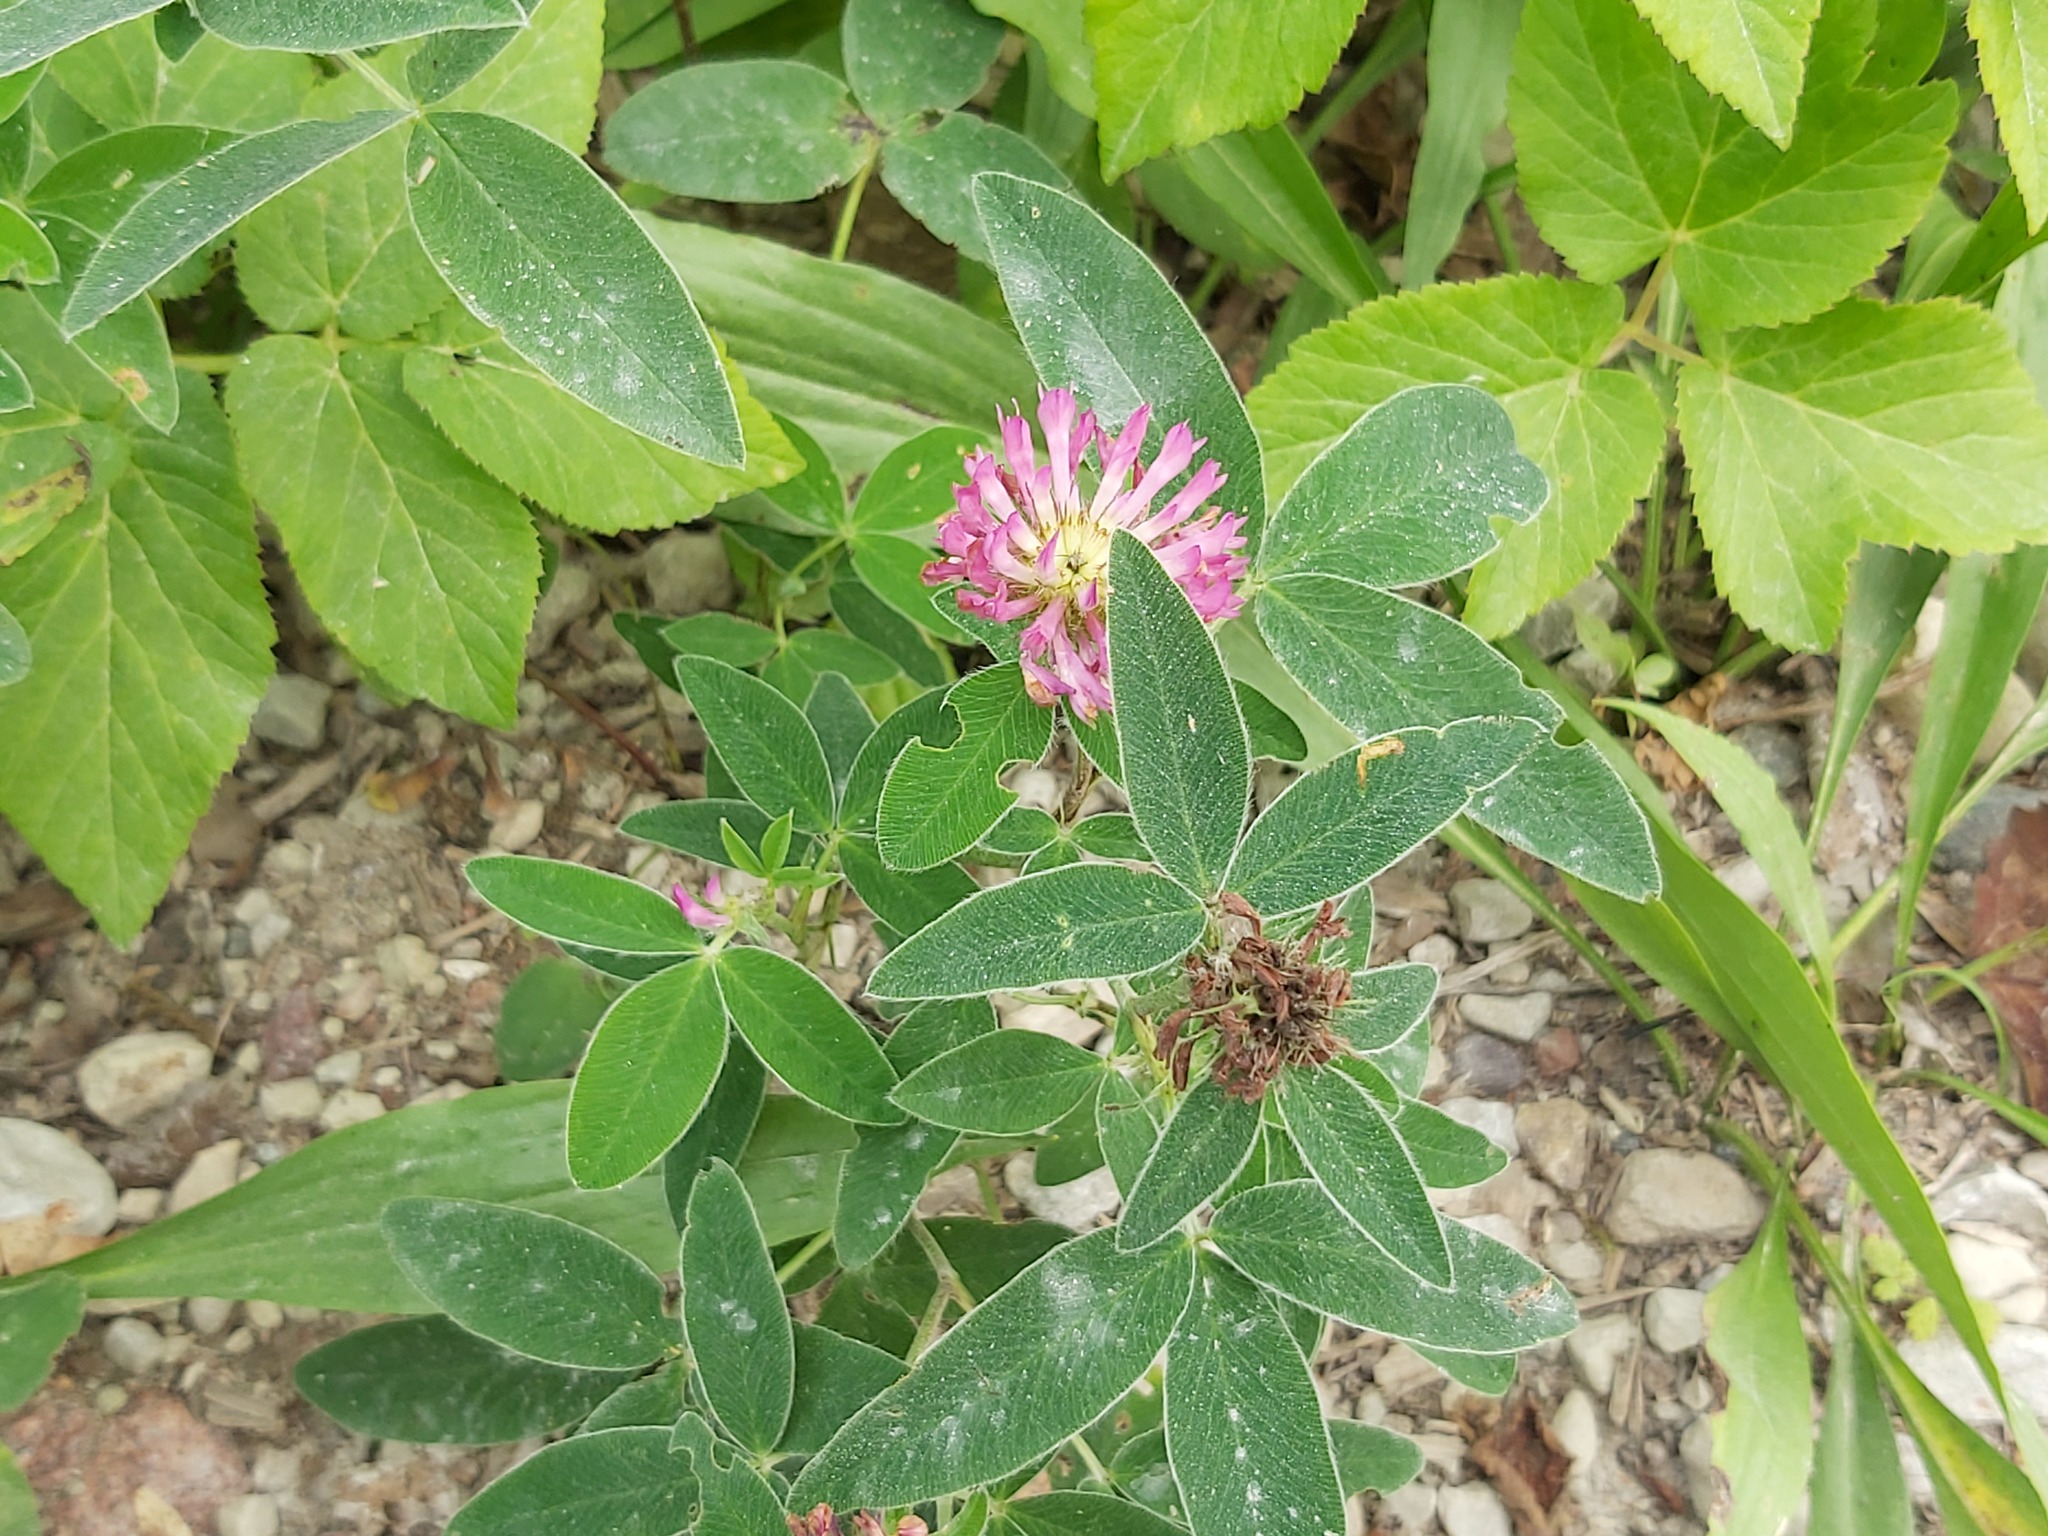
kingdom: Plantae
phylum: Tracheophyta
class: Magnoliopsida
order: Fabales
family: Fabaceae
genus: Trifolium
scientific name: Trifolium medium
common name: Zigzag clover
